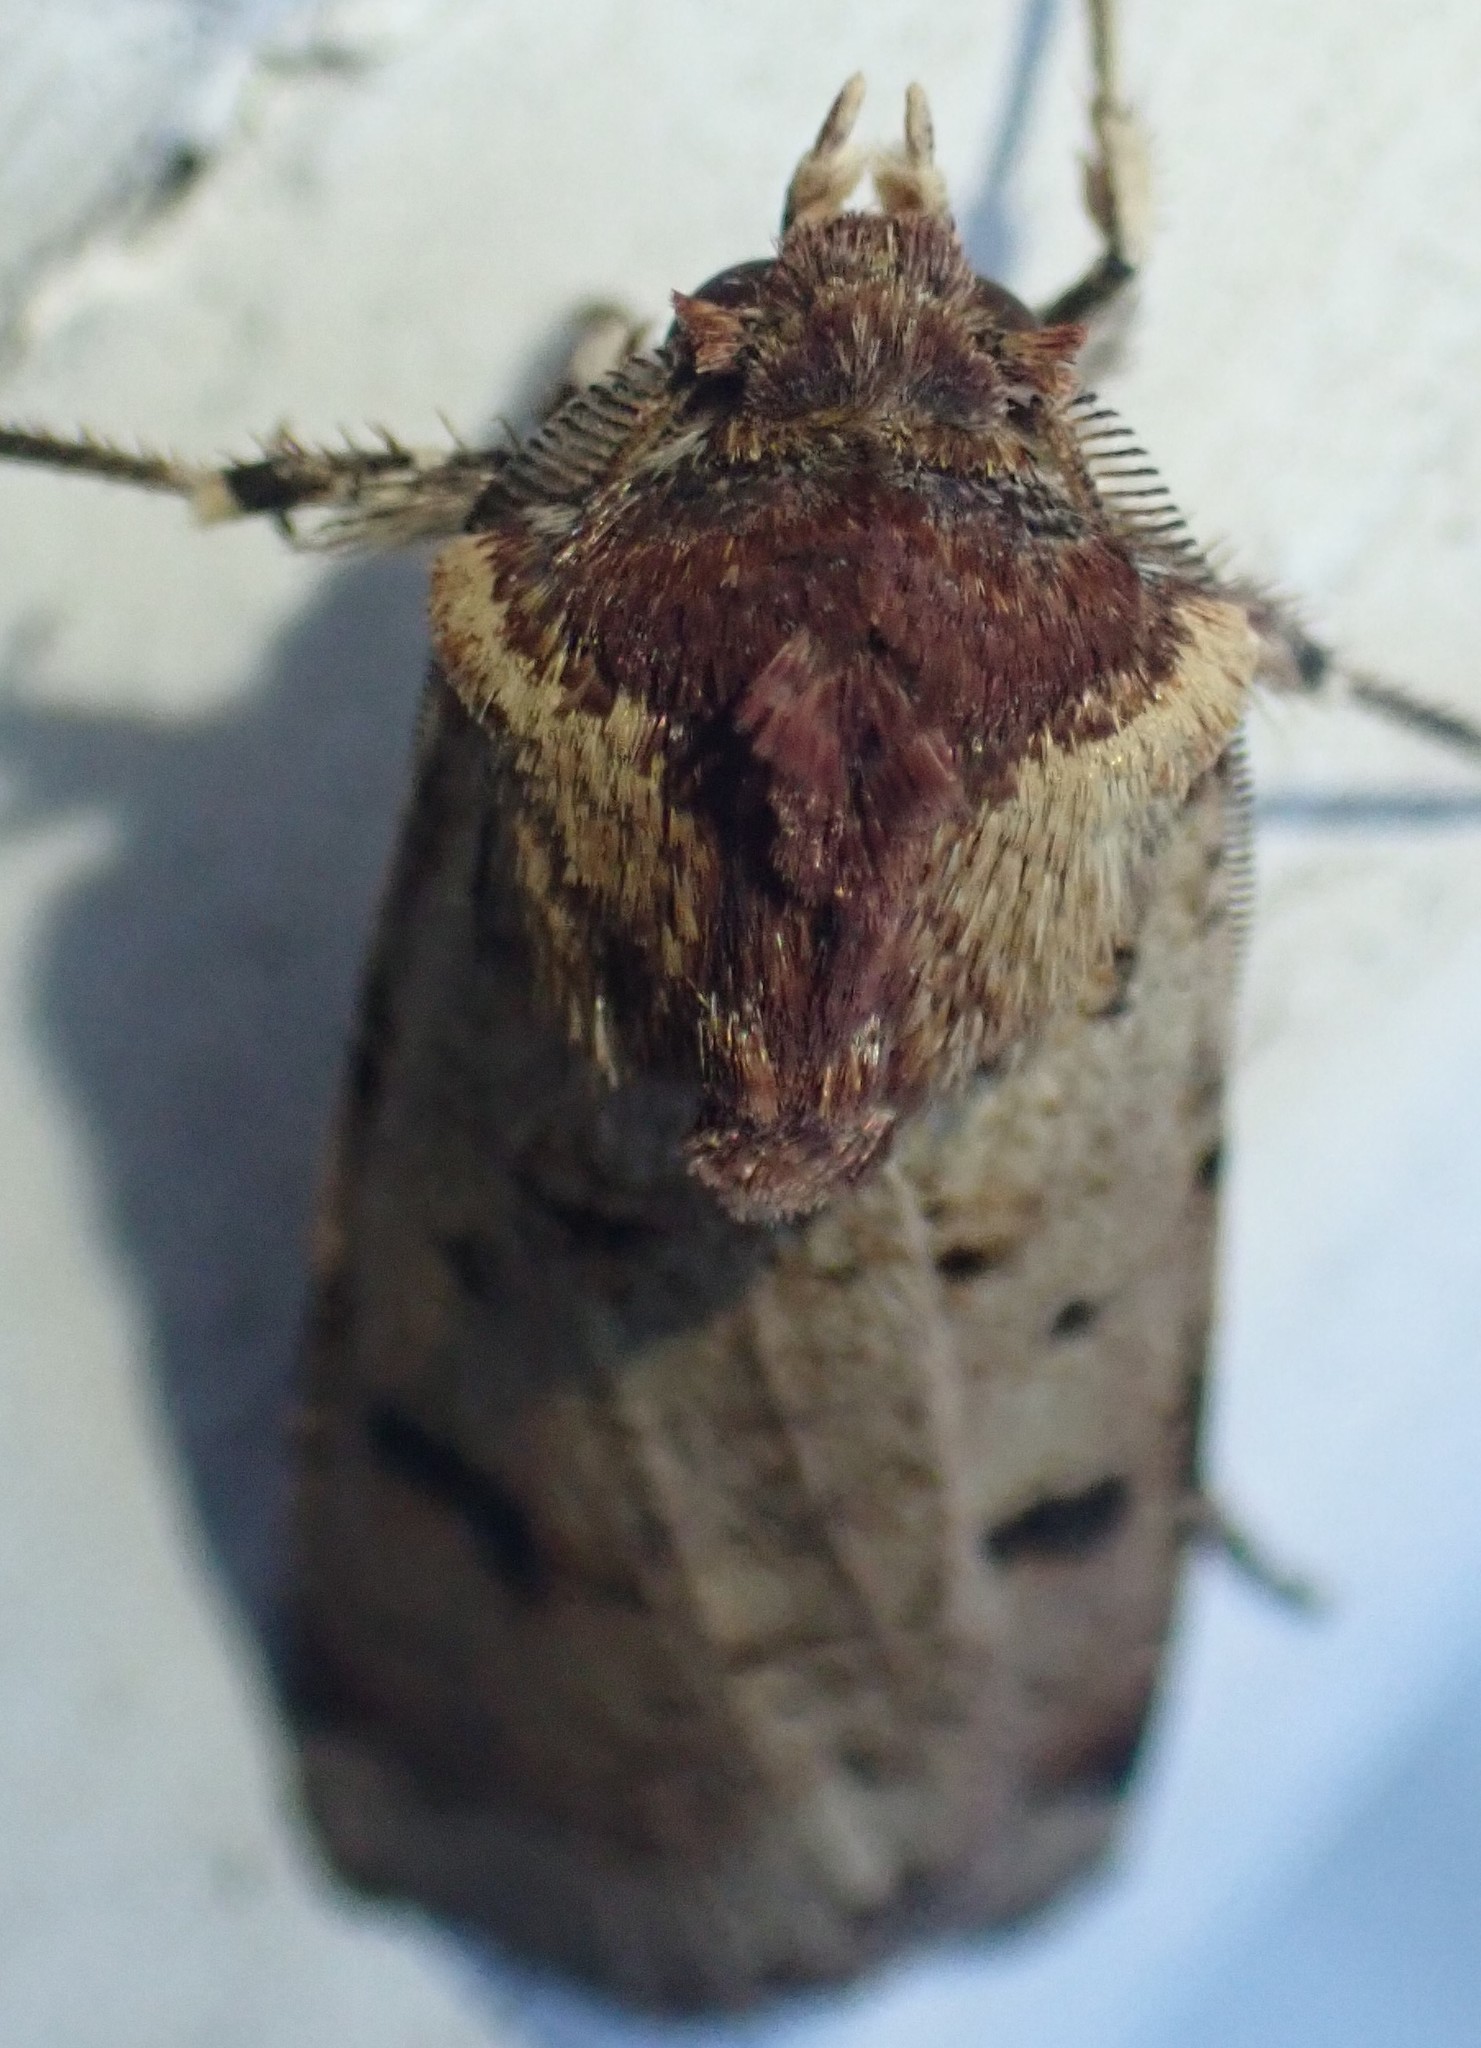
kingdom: Animalia
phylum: Arthropoda
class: Insecta
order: Lepidoptera
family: Noctuidae
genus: Agrotis
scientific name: Agrotis porphyricollis
